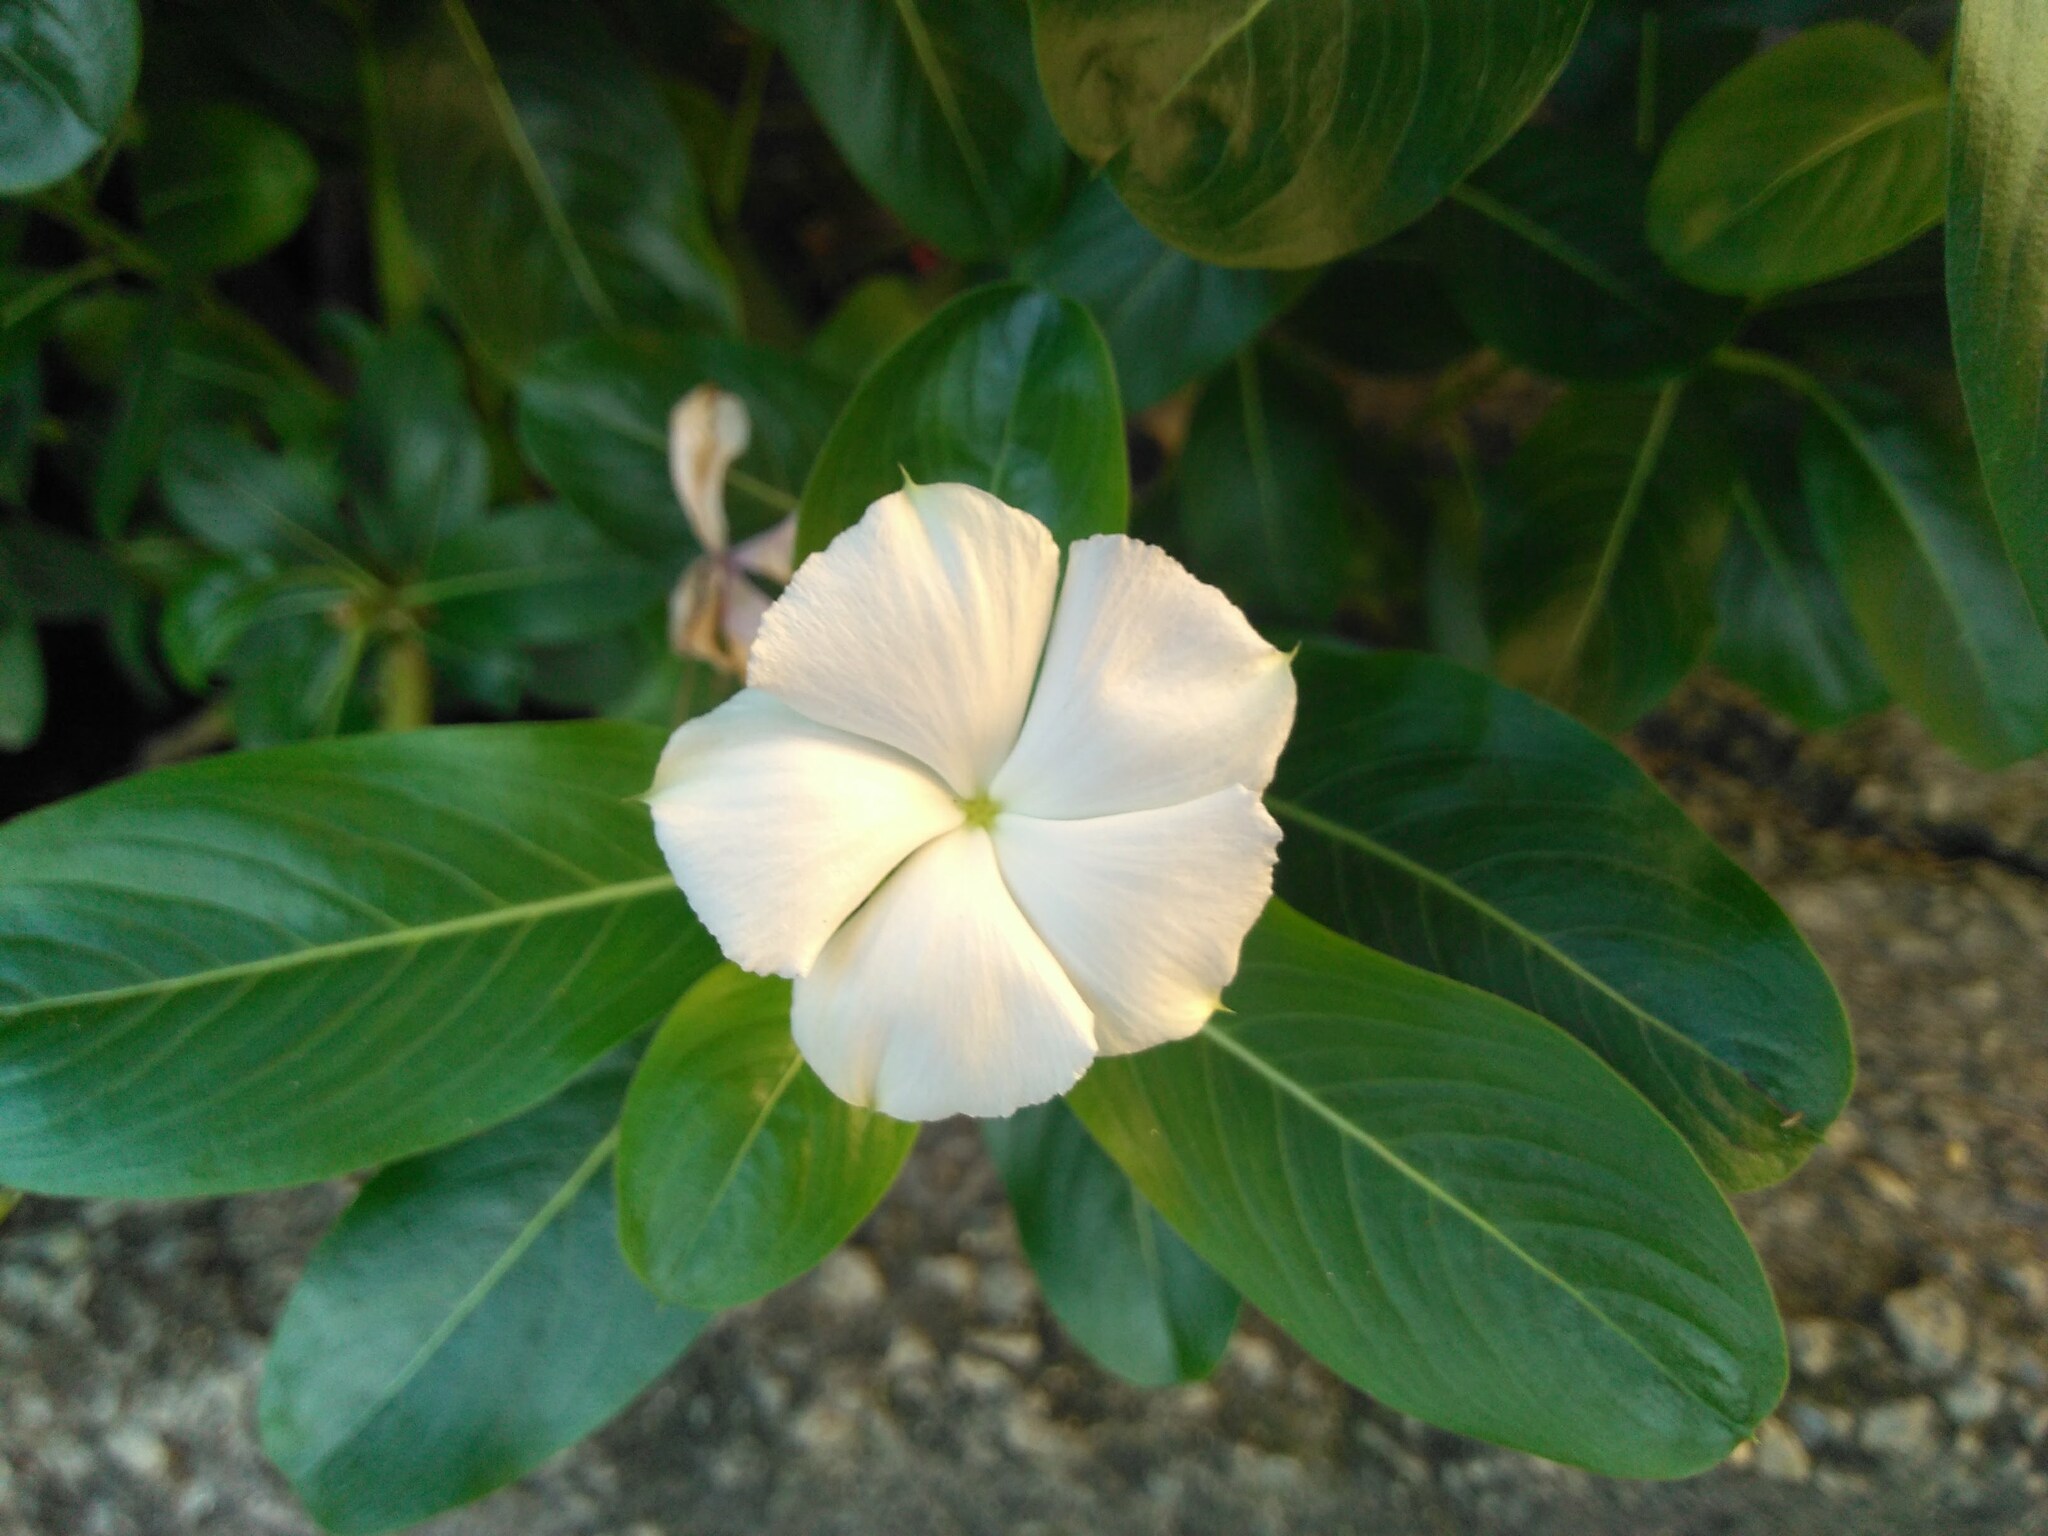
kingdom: Plantae
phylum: Tracheophyta
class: Magnoliopsida
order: Gentianales
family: Apocynaceae
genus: Catharanthus
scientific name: Catharanthus roseus
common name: Madagascar periwinkle
